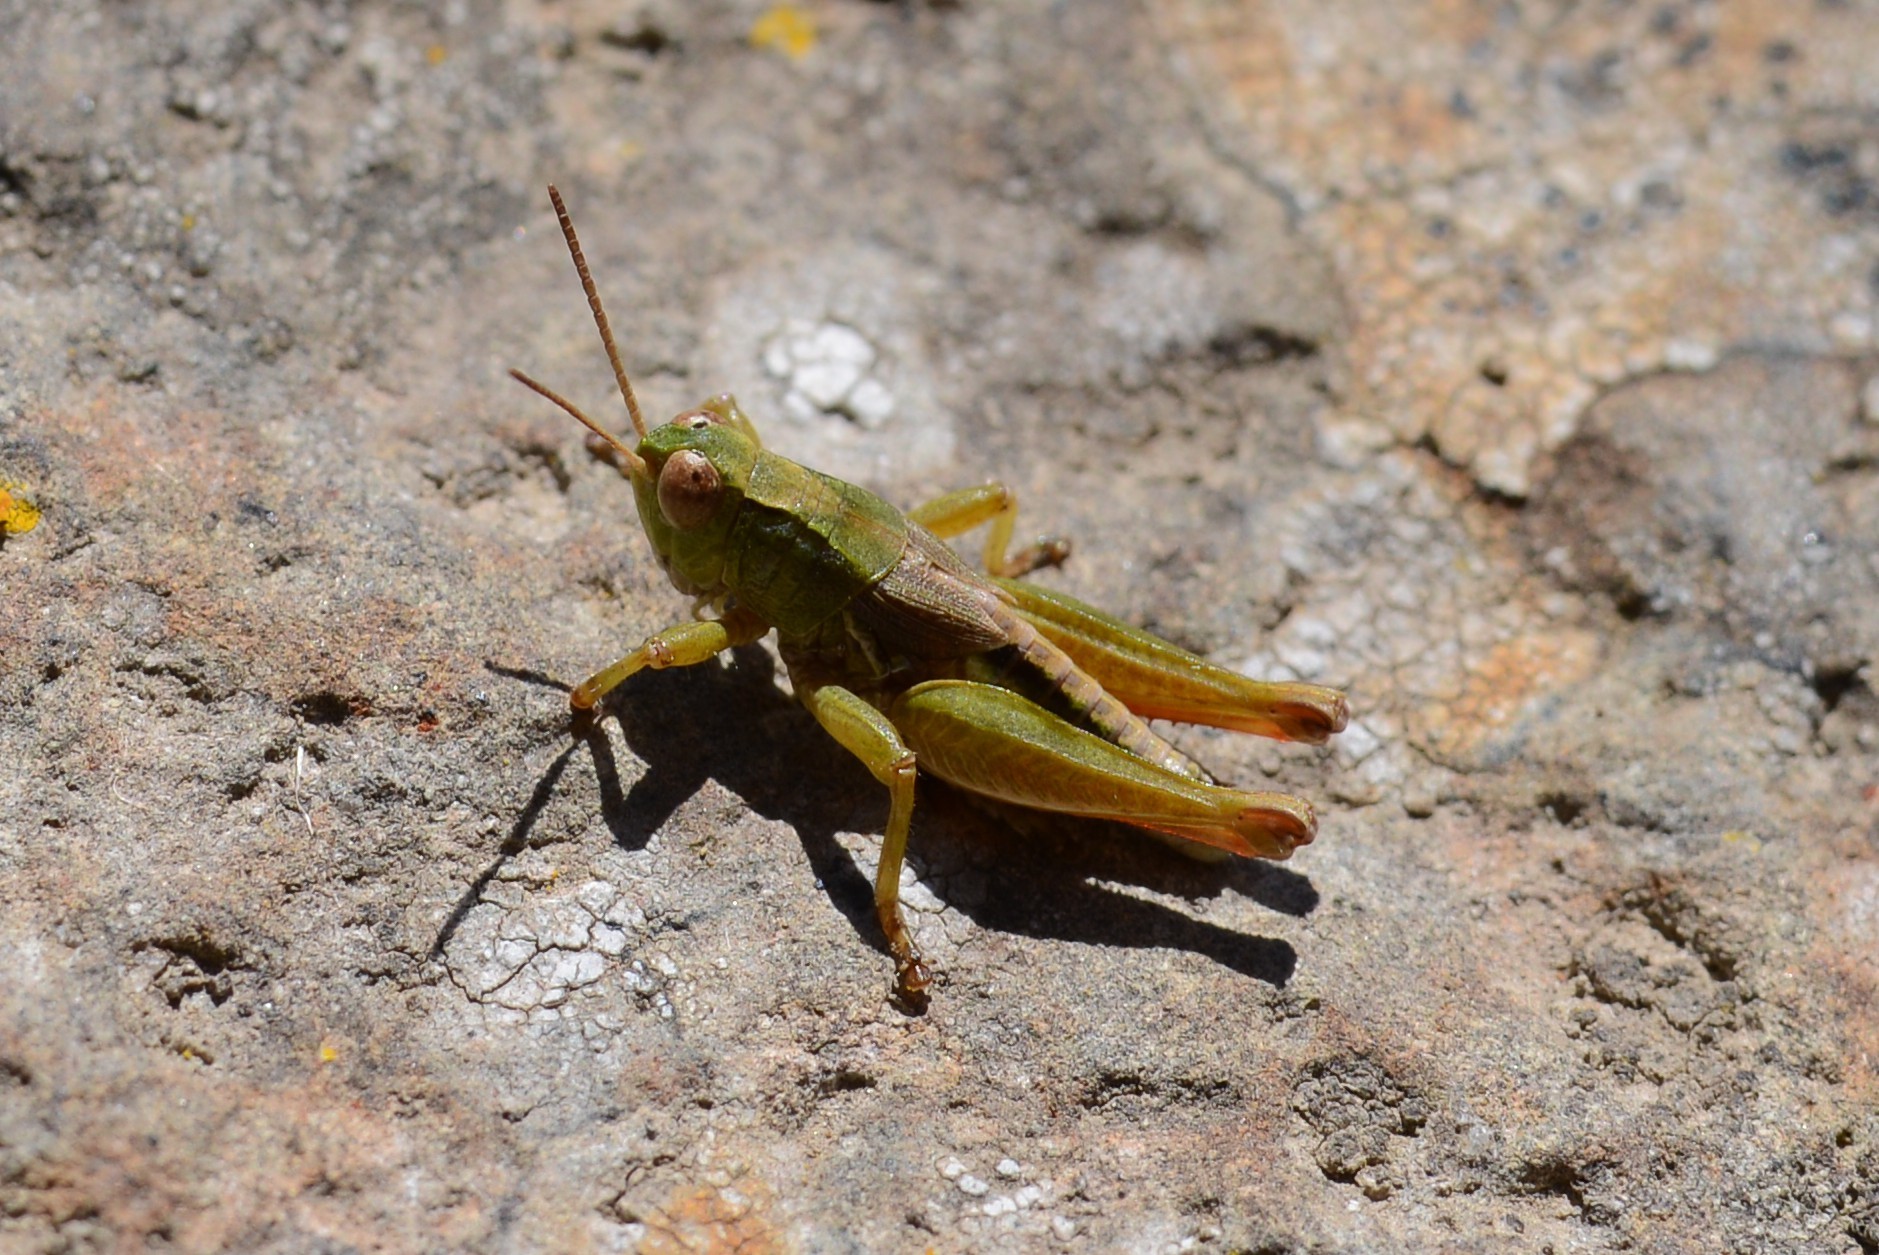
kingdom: Animalia
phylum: Arthropoda
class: Insecta
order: Orthoptera
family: Acrididae
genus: Phaulacridium
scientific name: Phaulacridium marginale
